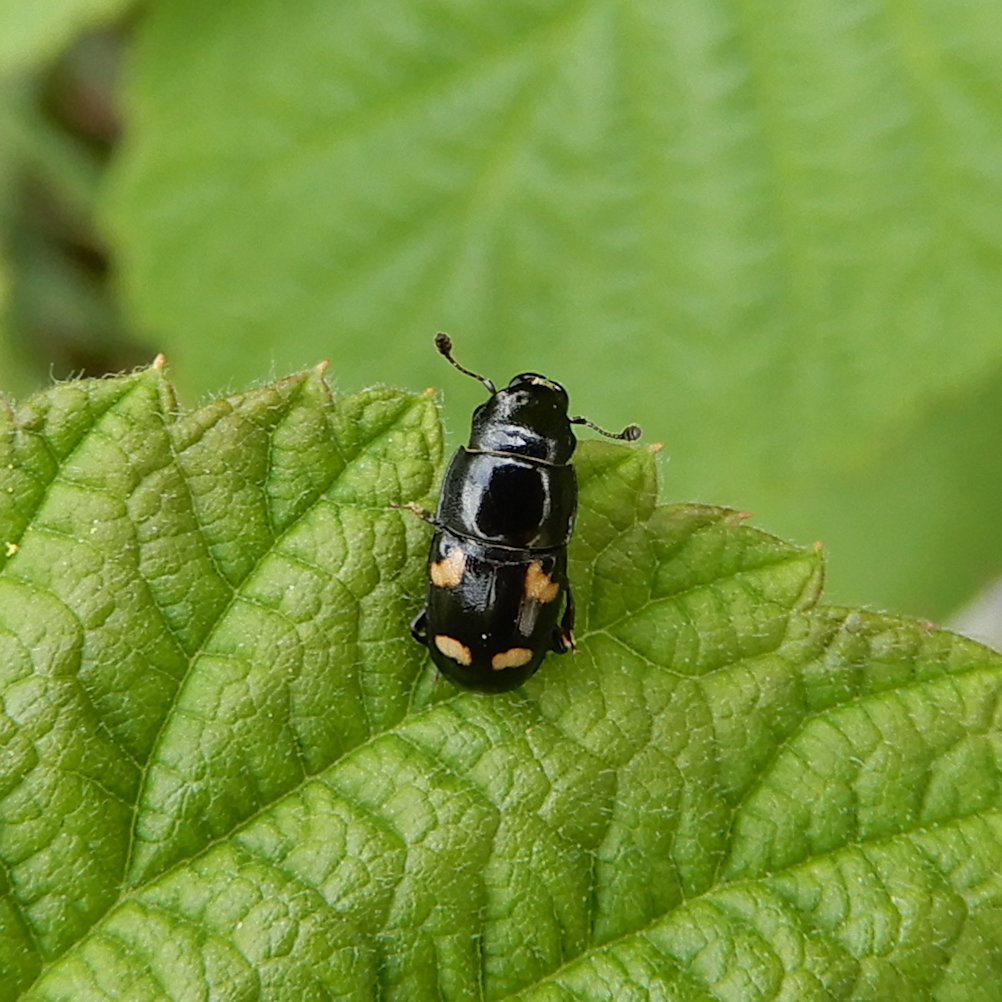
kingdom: Animalia
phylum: Arthropoda
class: Insecta
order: Coleoptera
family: Nitidulidae
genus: Glischrochilus
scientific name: Glischrochilus quadrisignatus
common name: Picnic beetle
